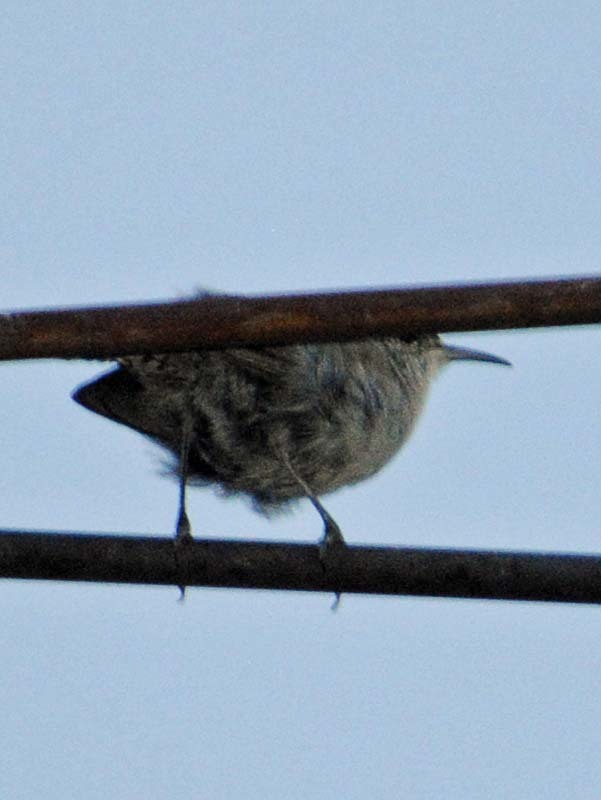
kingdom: Animalia
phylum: Chordata
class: Aves
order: Passeriformes
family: Troglodytidae
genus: Thryomanes
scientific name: Thryomanes bewickii
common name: Bewick's wren
